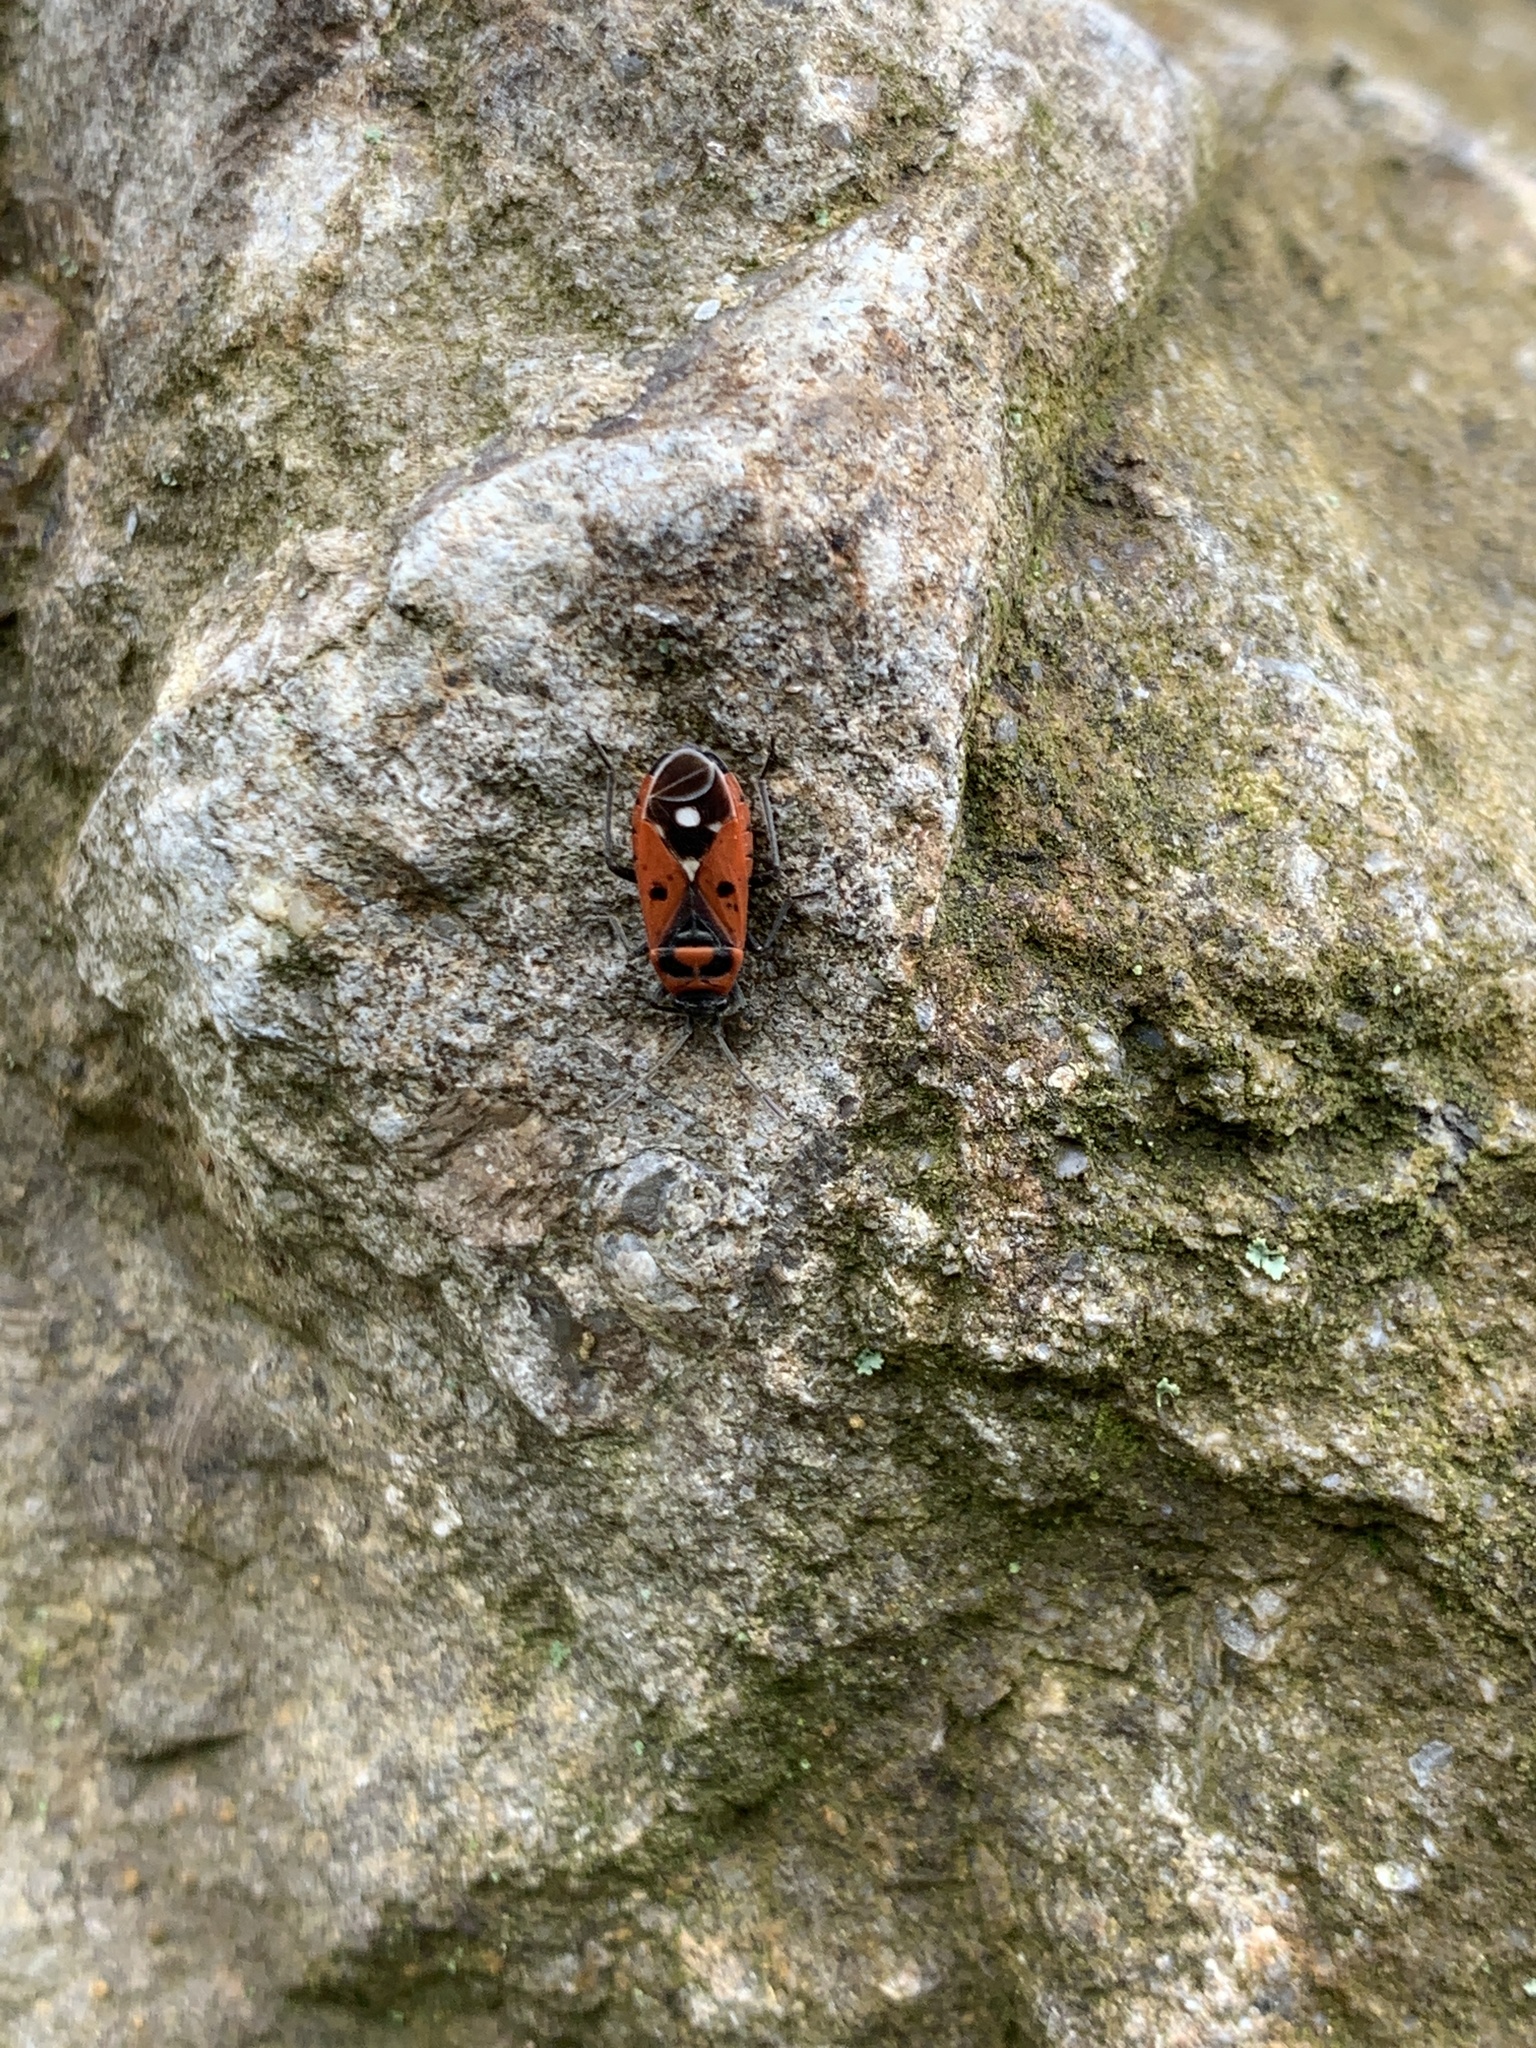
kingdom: Animalia
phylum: Arthropoda
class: Insecta
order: Hemiptera
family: Lygaeidae
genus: Melanocoryphus
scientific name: Melanocoryphus albomaculatus
